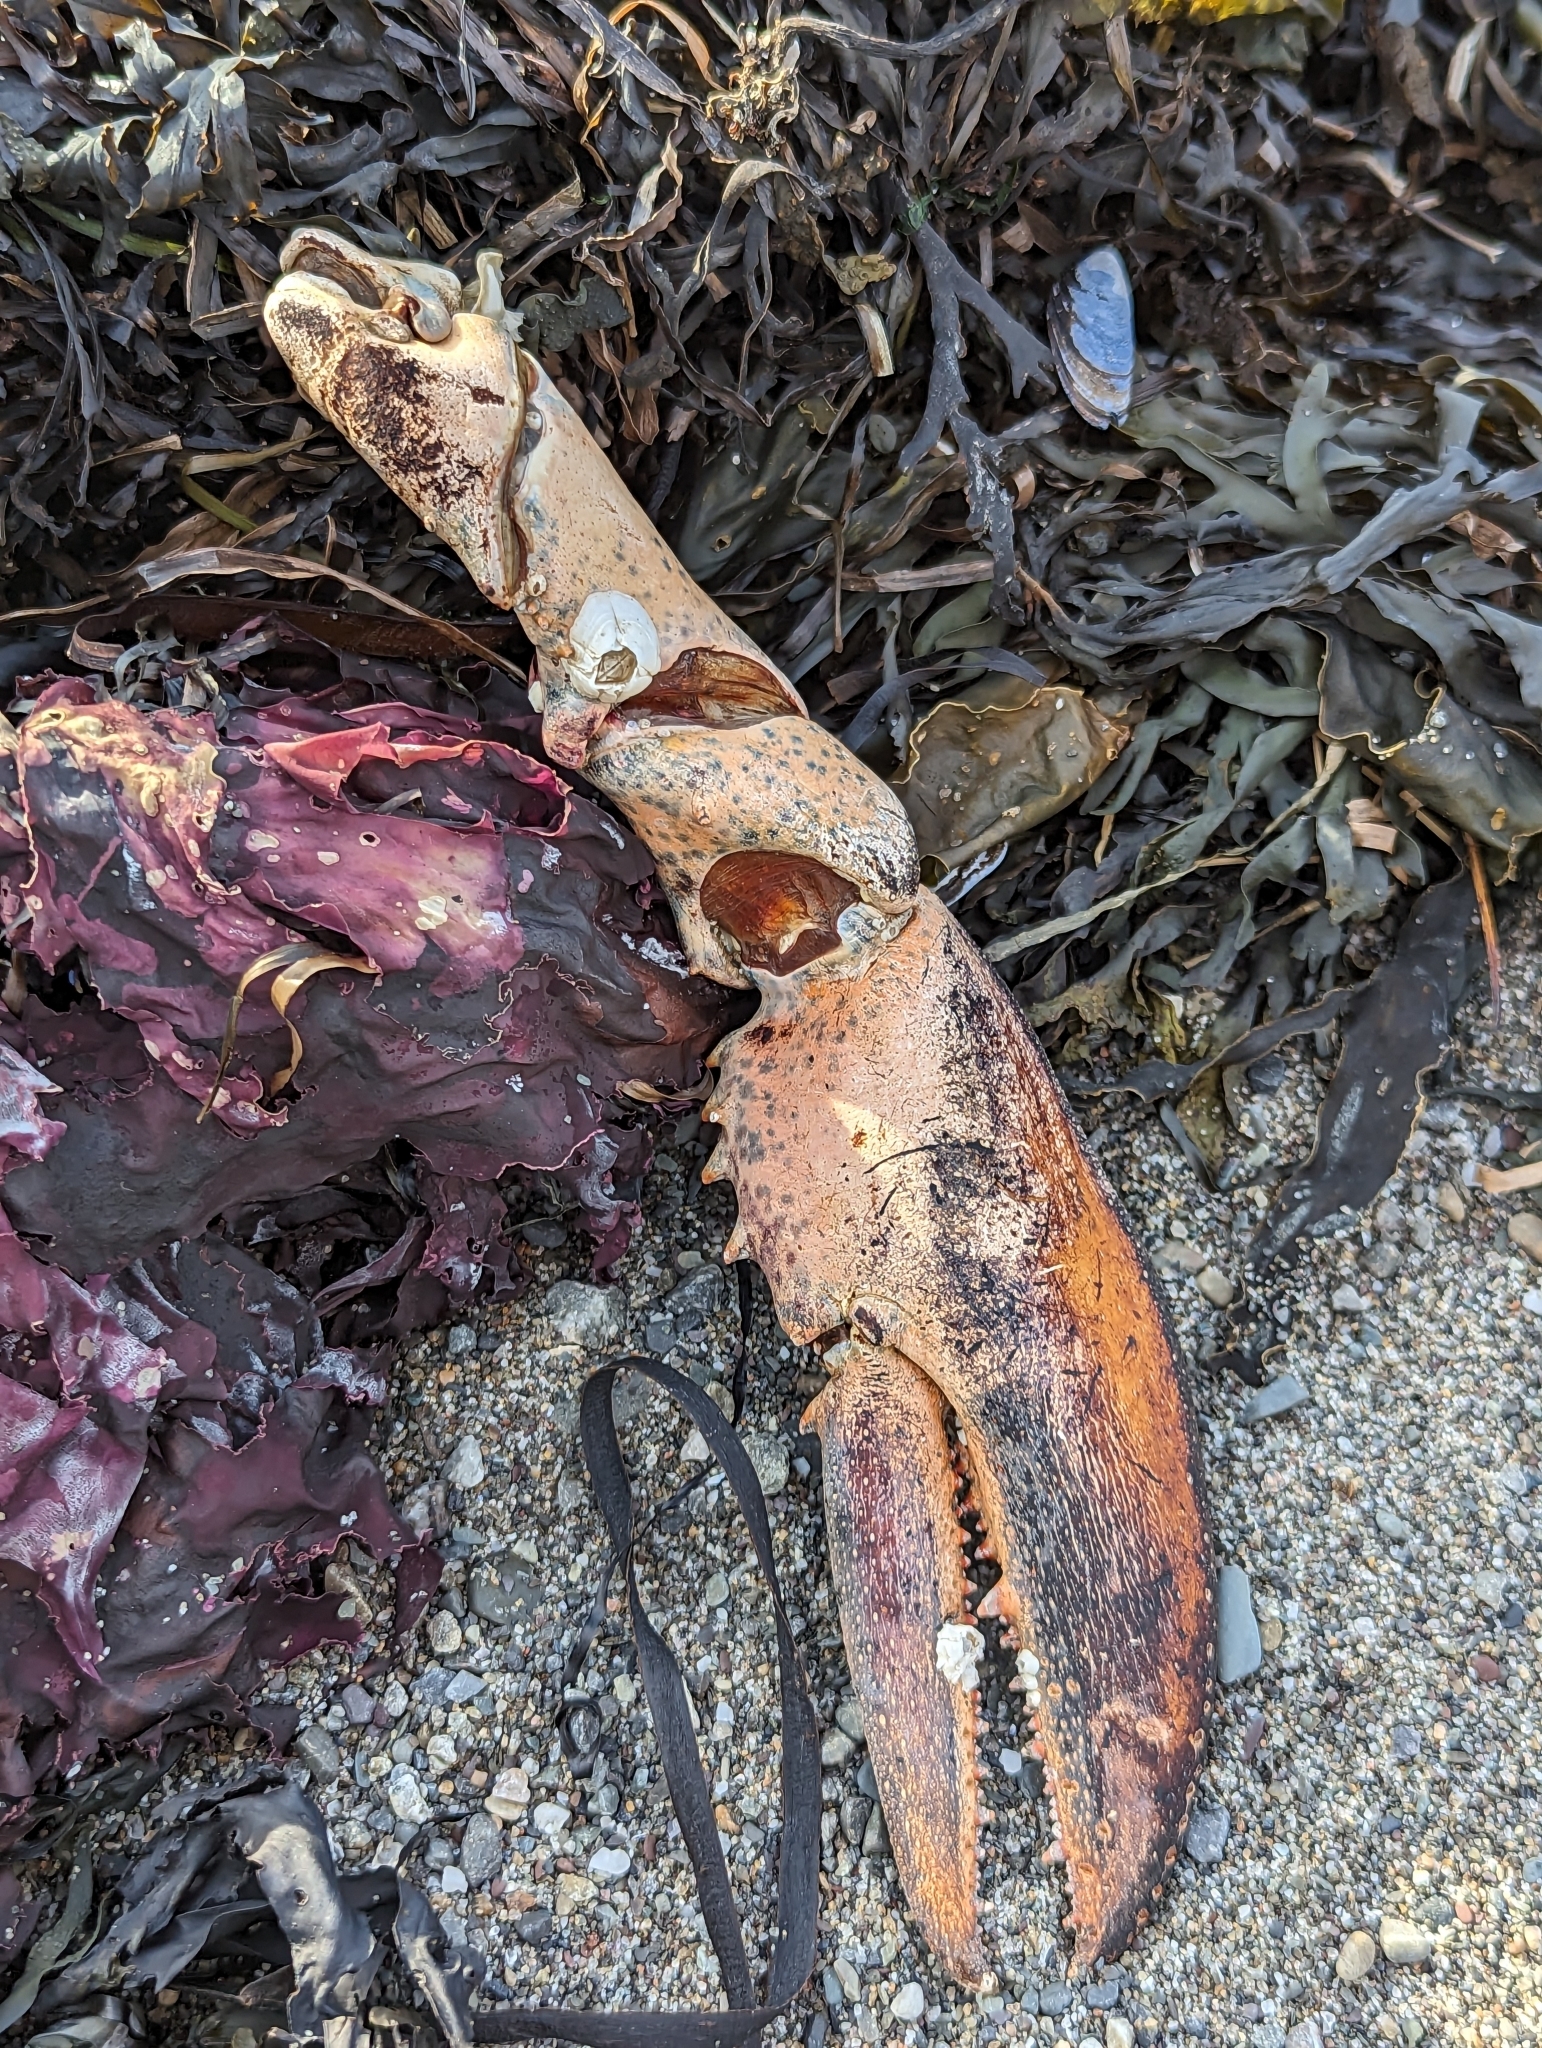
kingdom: Animalia
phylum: Arthropoda
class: Malacostraca
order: Decapoda
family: Nephropidae
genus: Homarus
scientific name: Homarus americanus
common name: American lobster
